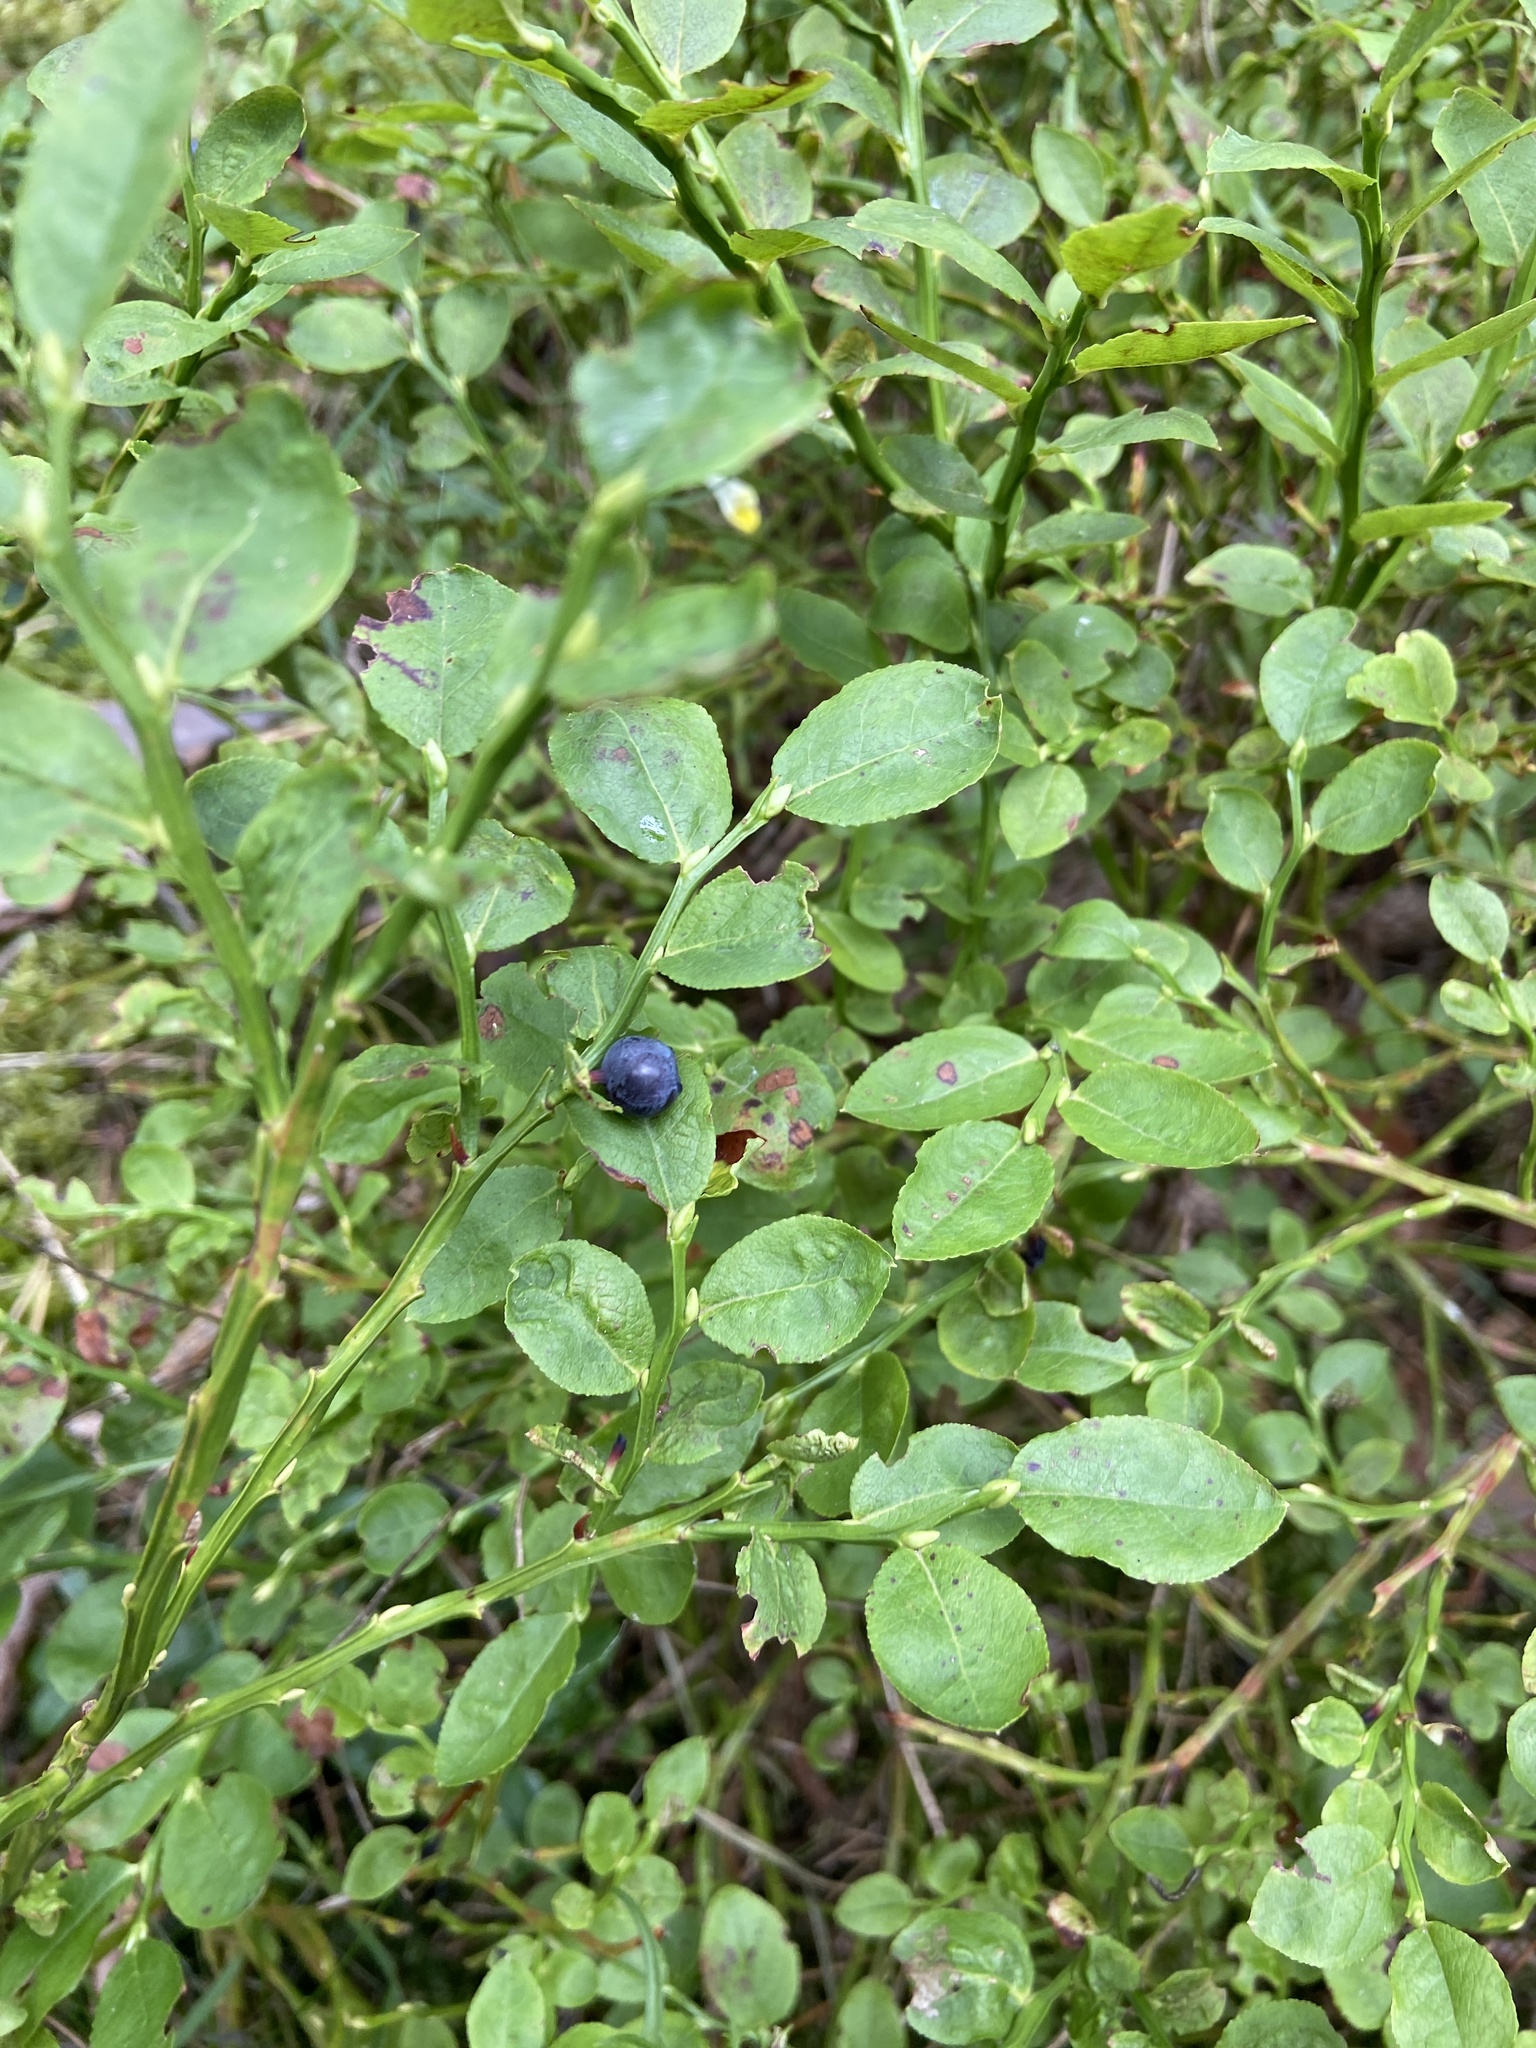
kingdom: Plantae
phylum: Tracheophyta
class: Magnoliopsida
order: Ericales
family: Ericaceae
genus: Vaccinium
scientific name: Vaccinium myrtillus
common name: Bilberry
